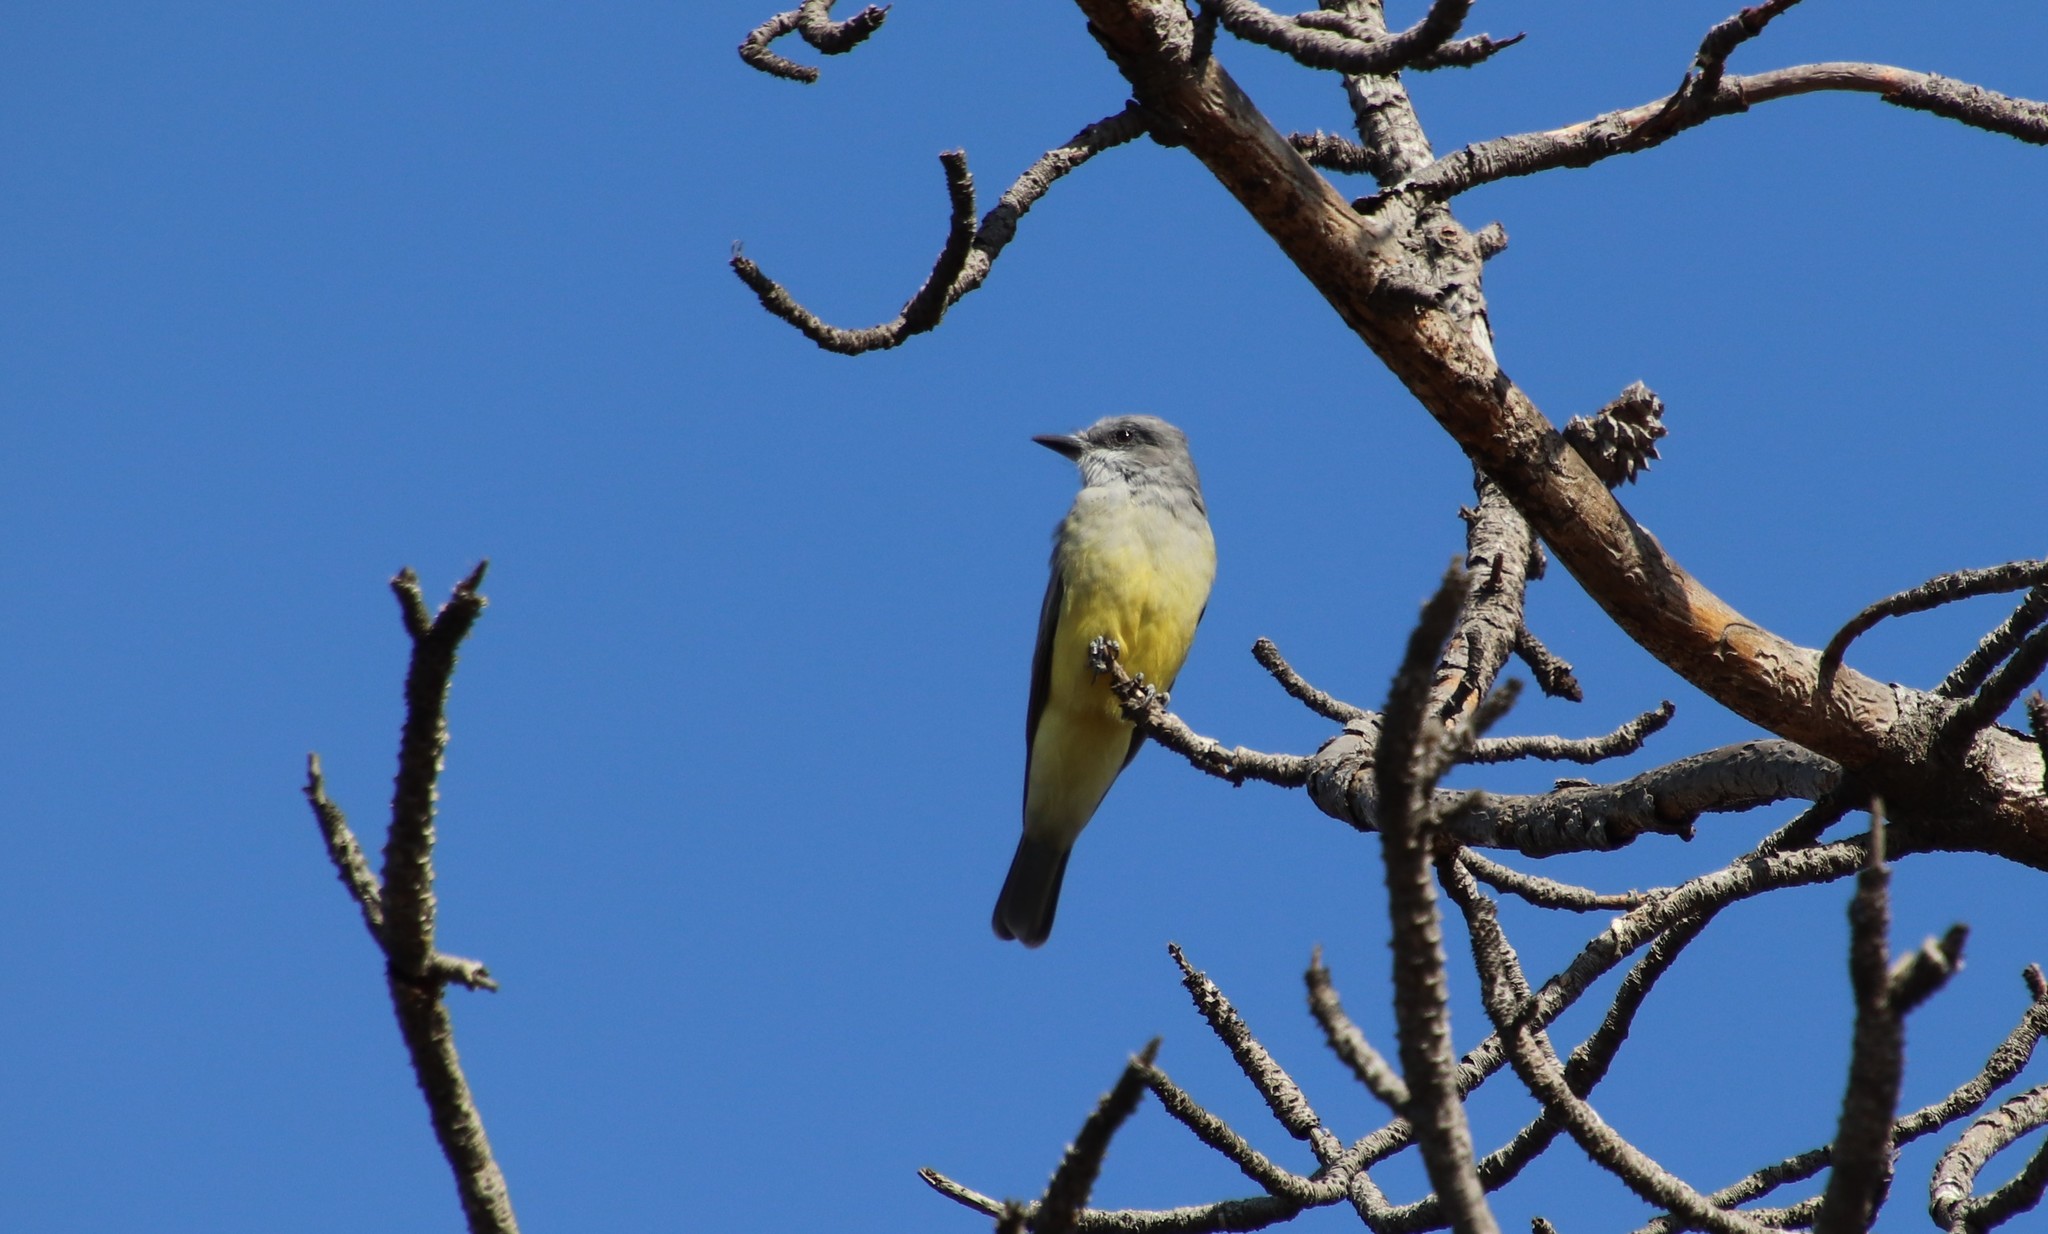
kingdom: Animalia
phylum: Chordata
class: Aves
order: Passeriformes
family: Tyrannidae
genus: Tyrannus
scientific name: Tyrannus vociferans
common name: Cassin's kingbird
